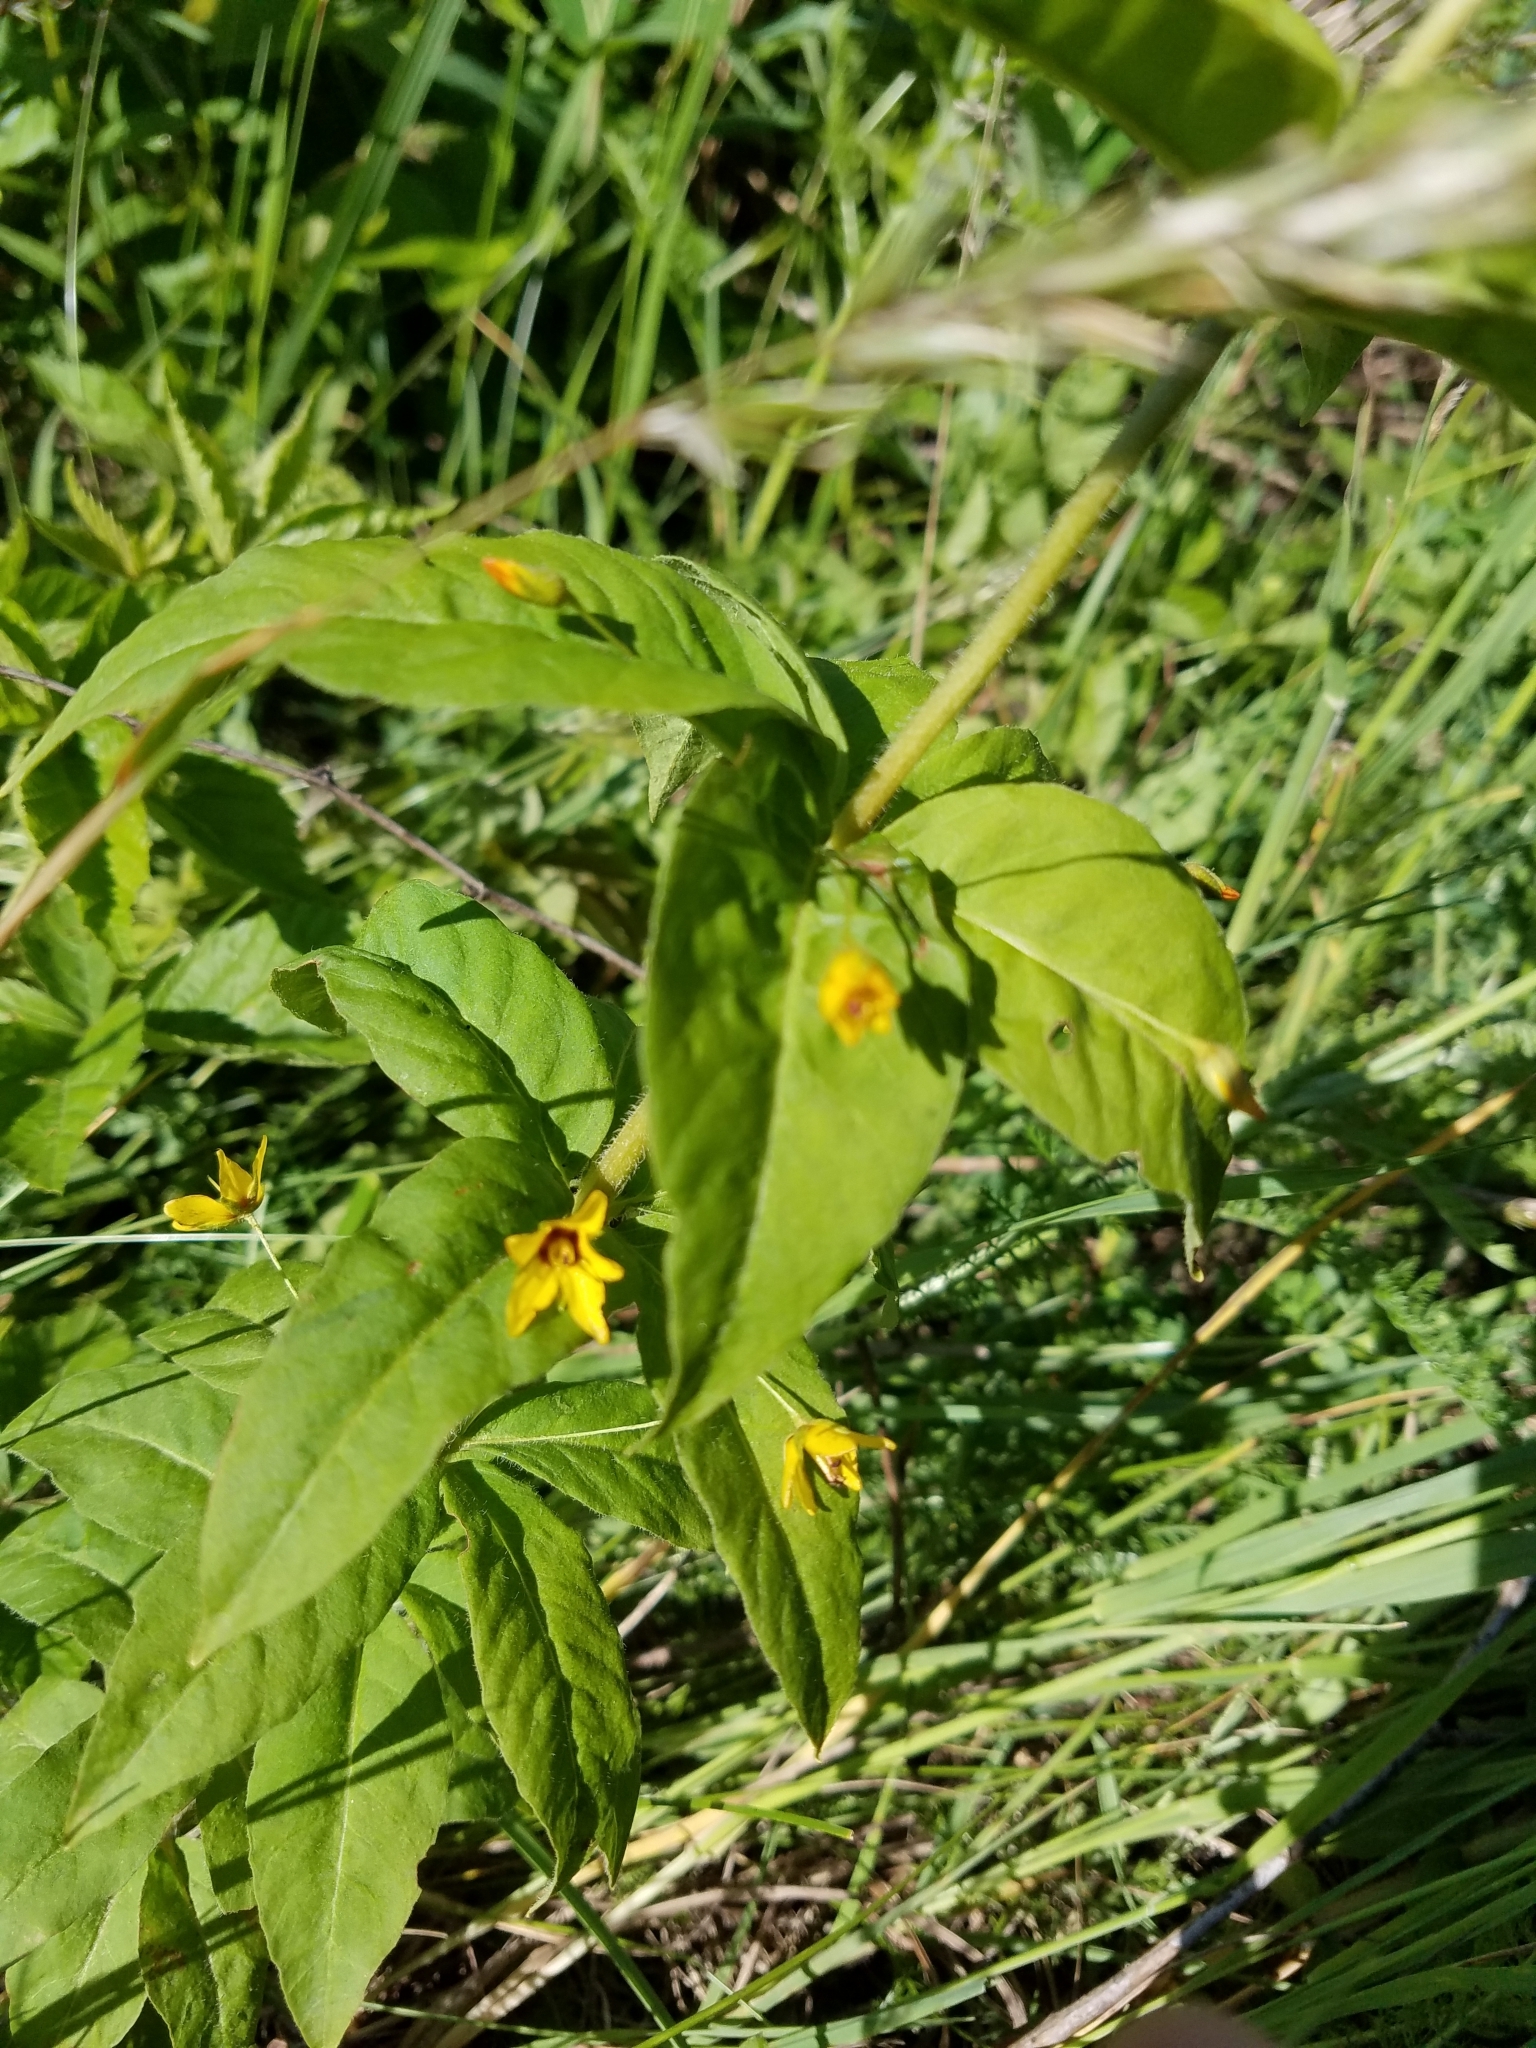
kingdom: Plantae
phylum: Tracheophyta
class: Magnoliopsida
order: Ericales
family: Primulaceae
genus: Lysimachia
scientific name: Lysimachia quadrifolia
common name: Whorled loosestrife
